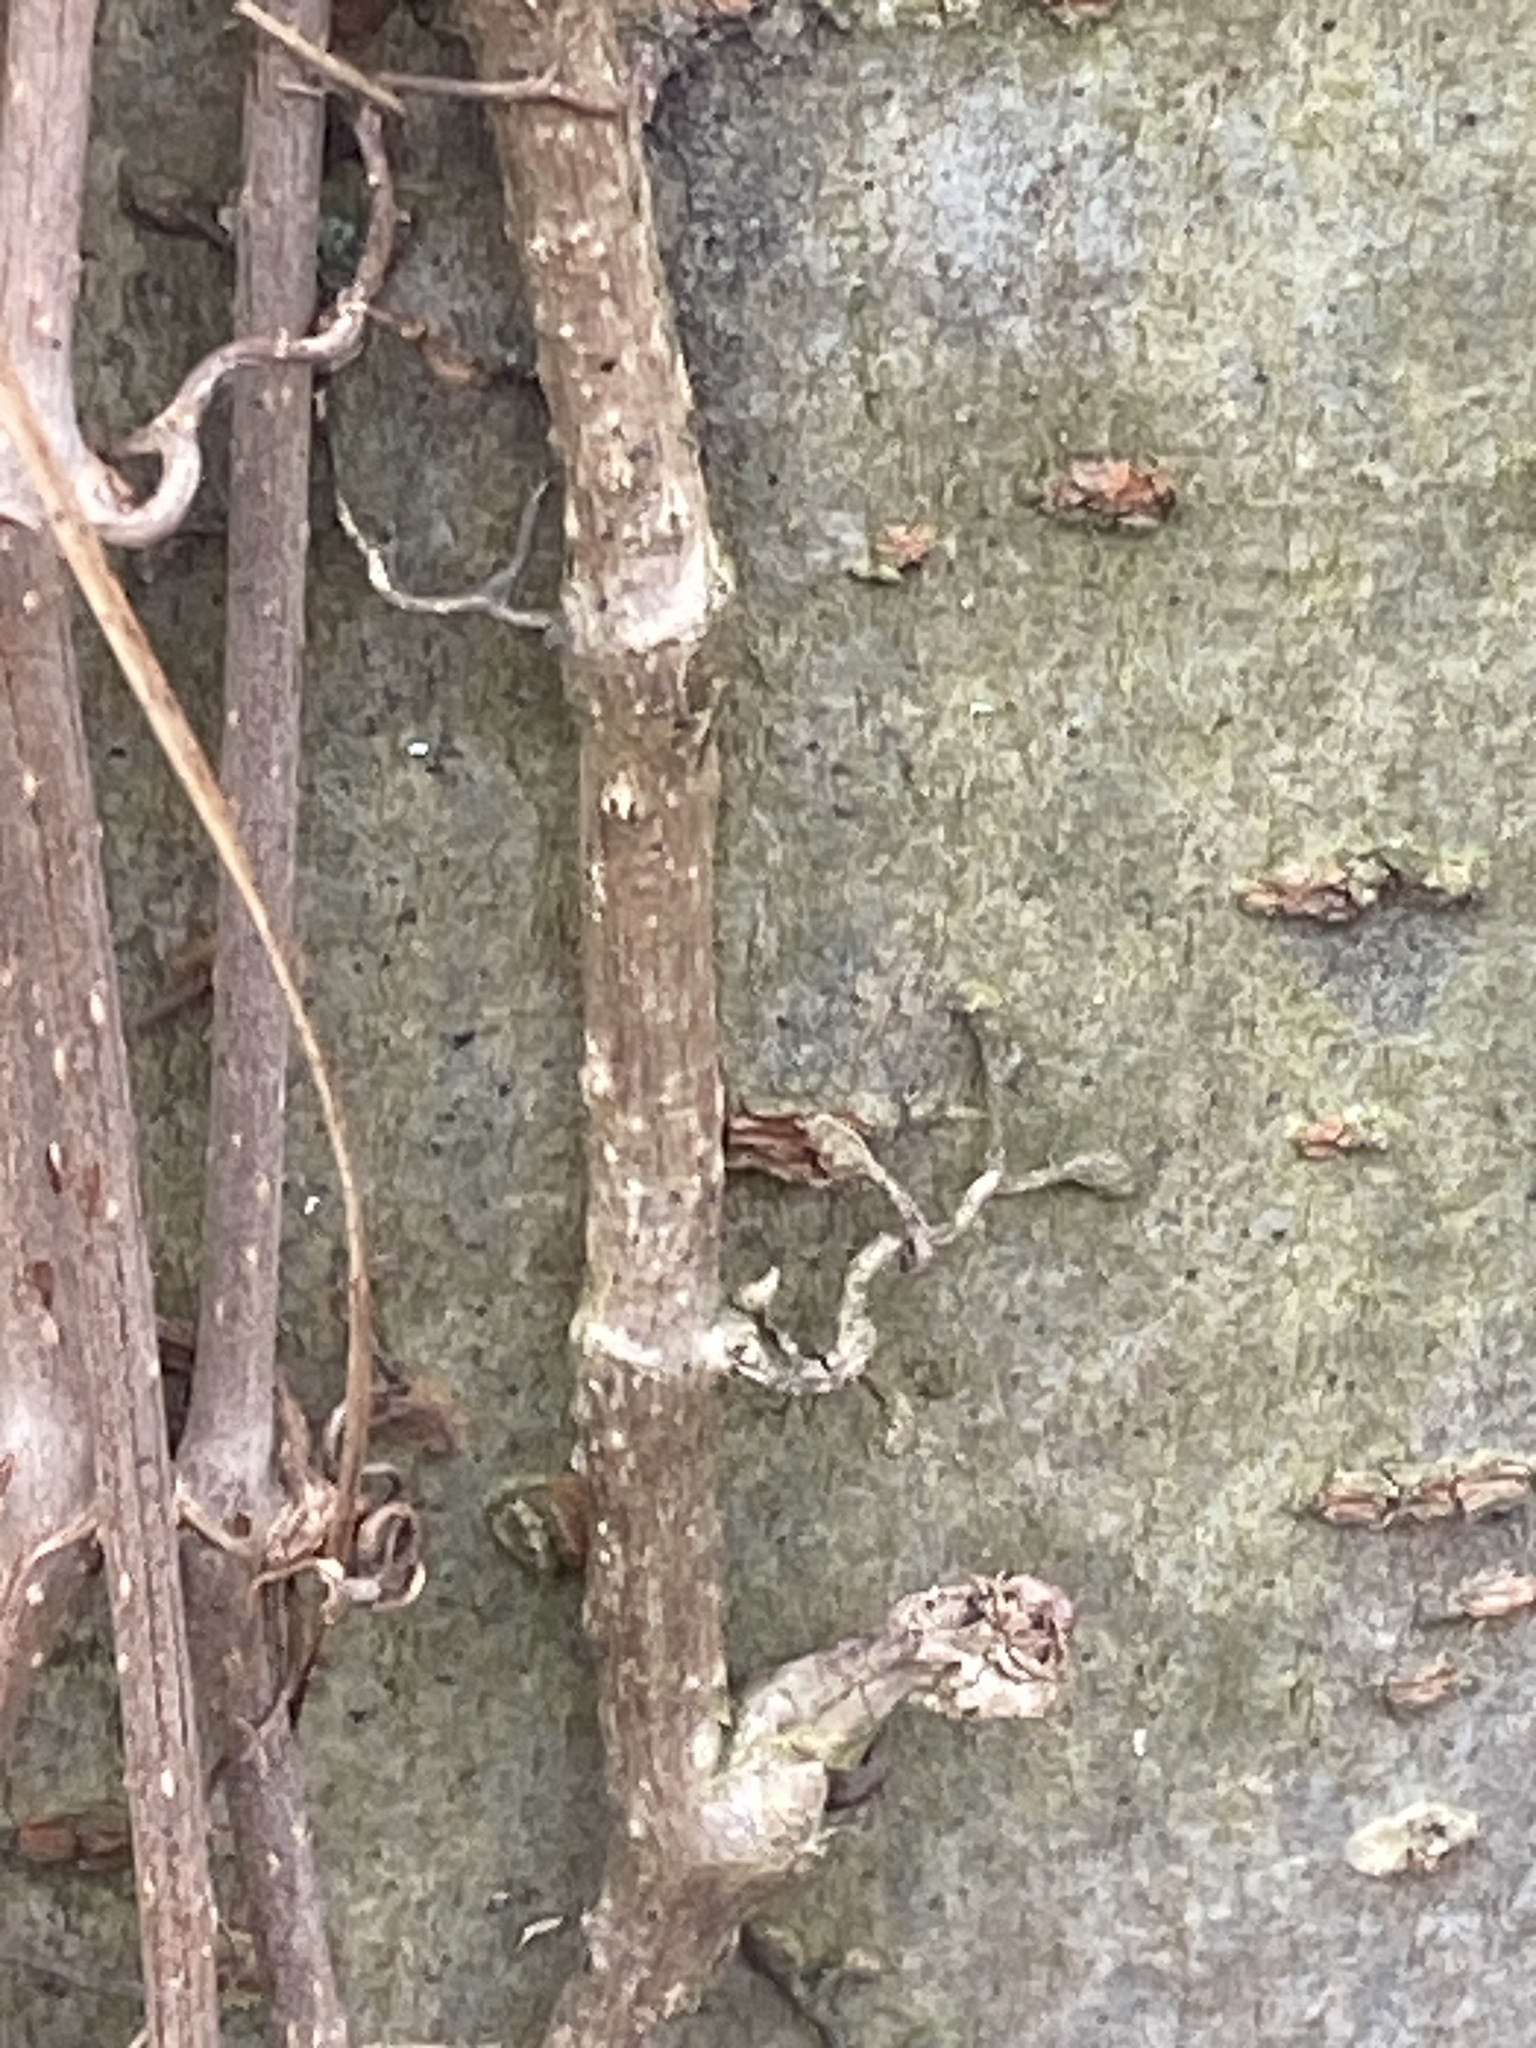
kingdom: Plantae
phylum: Tracheophyta
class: Magnoliopsida
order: Vitales
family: Vitaceae
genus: Parthenocissus
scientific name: Parthenocissus quinquefolia
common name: Virginia-creeper
